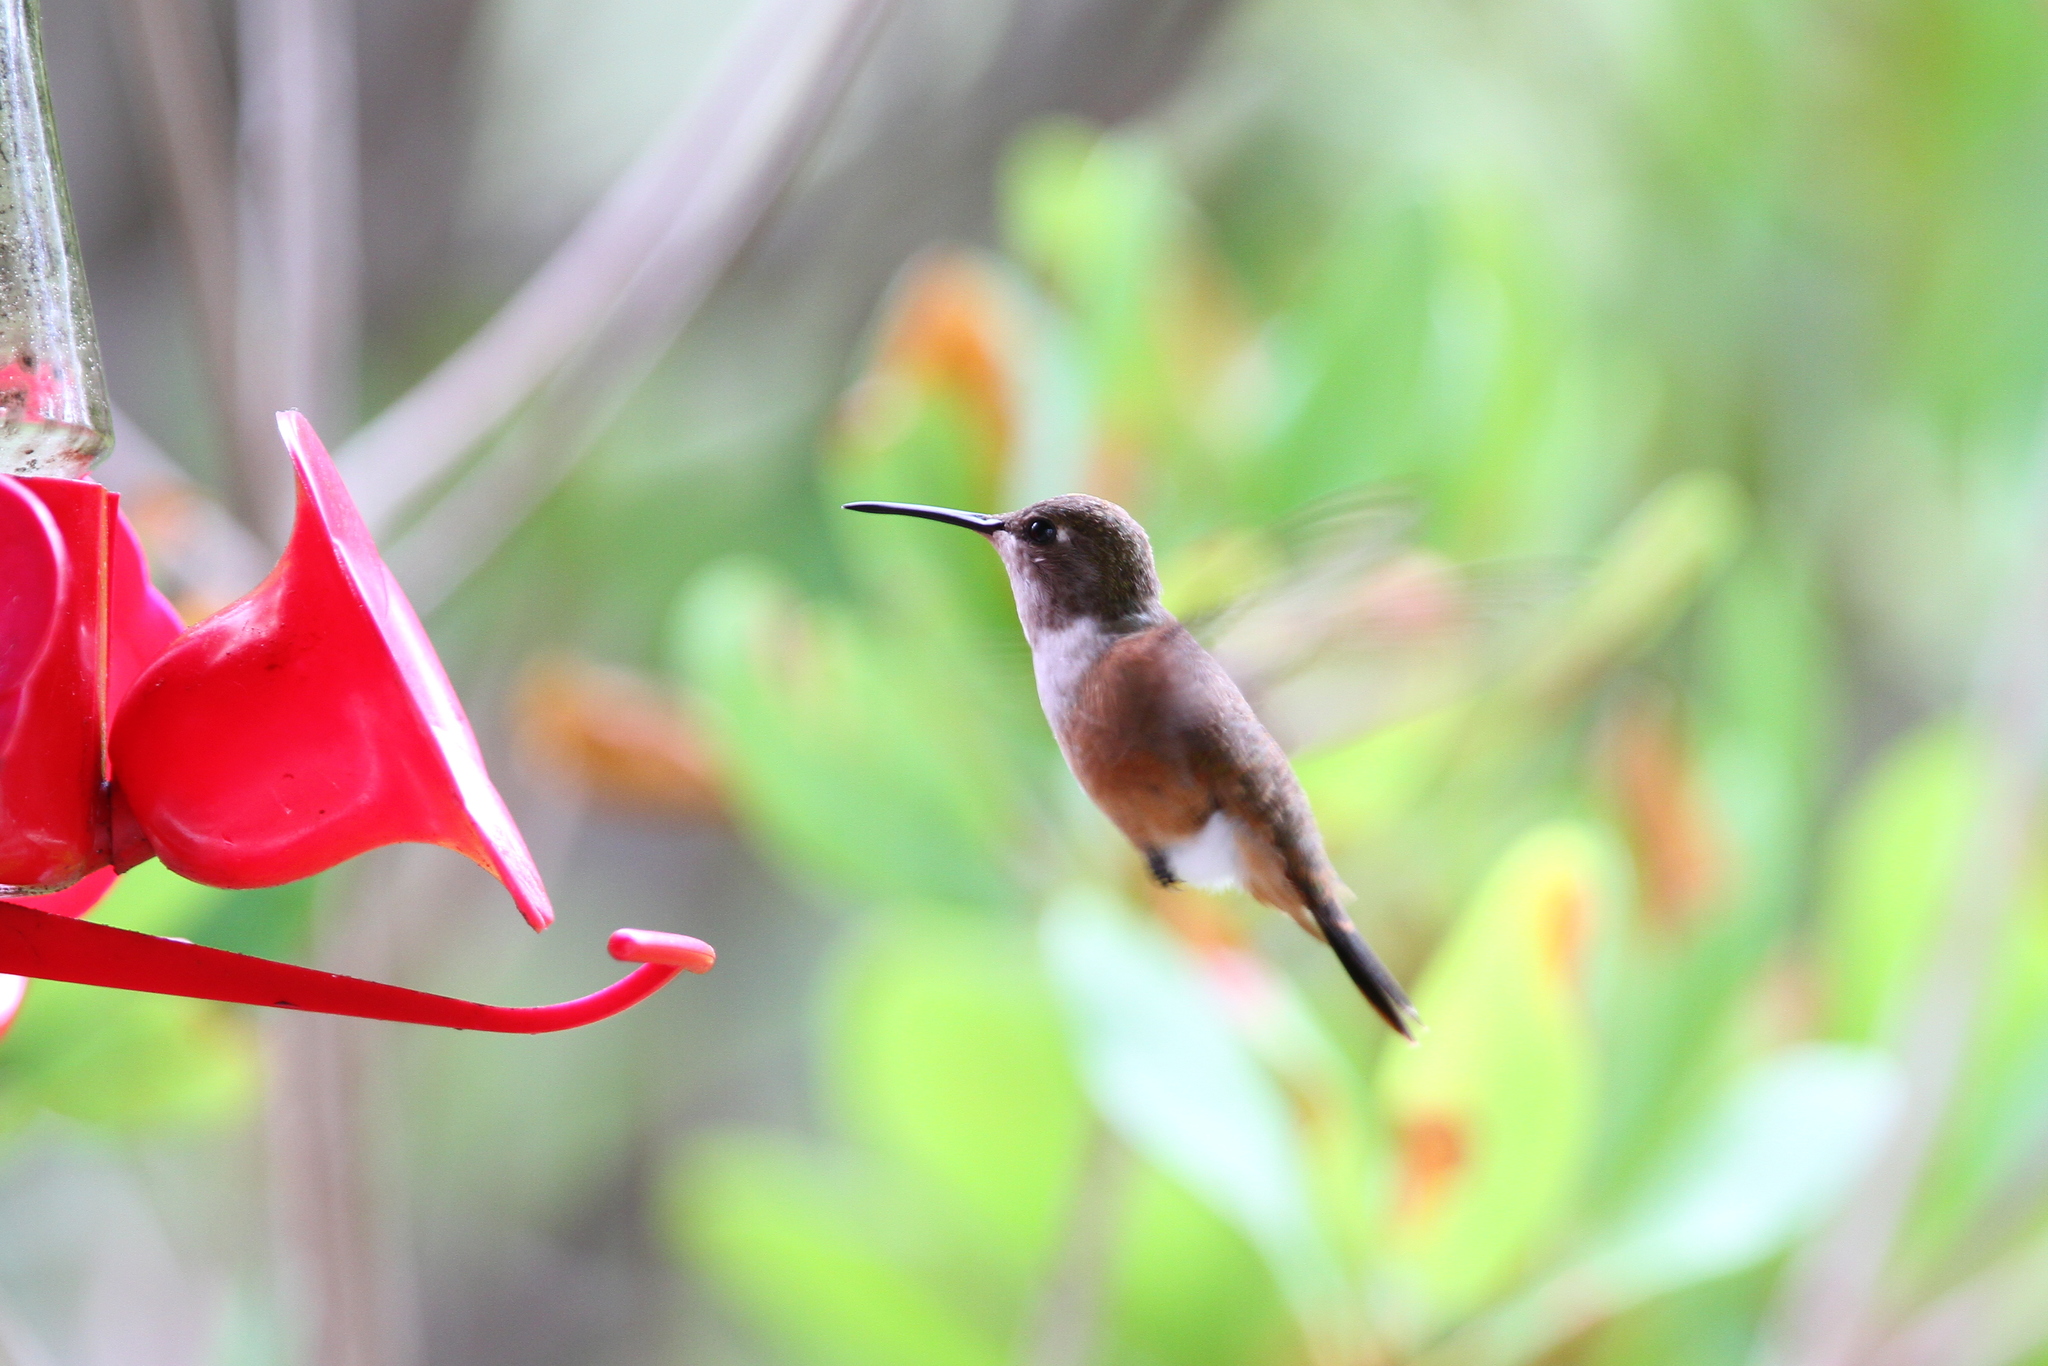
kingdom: Animalia
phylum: Chordata
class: Aves
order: Apodiformes
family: Trochilidae
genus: Nesophlox
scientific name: Nesophlox evelynae
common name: Bahama woodstar
